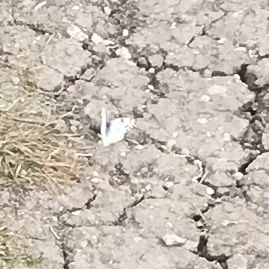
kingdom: Animalia
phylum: Arthropoda
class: Insecta
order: Lepidoptera
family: Pieridae
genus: Pontia
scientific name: Pontia protodice
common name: Checkered white
